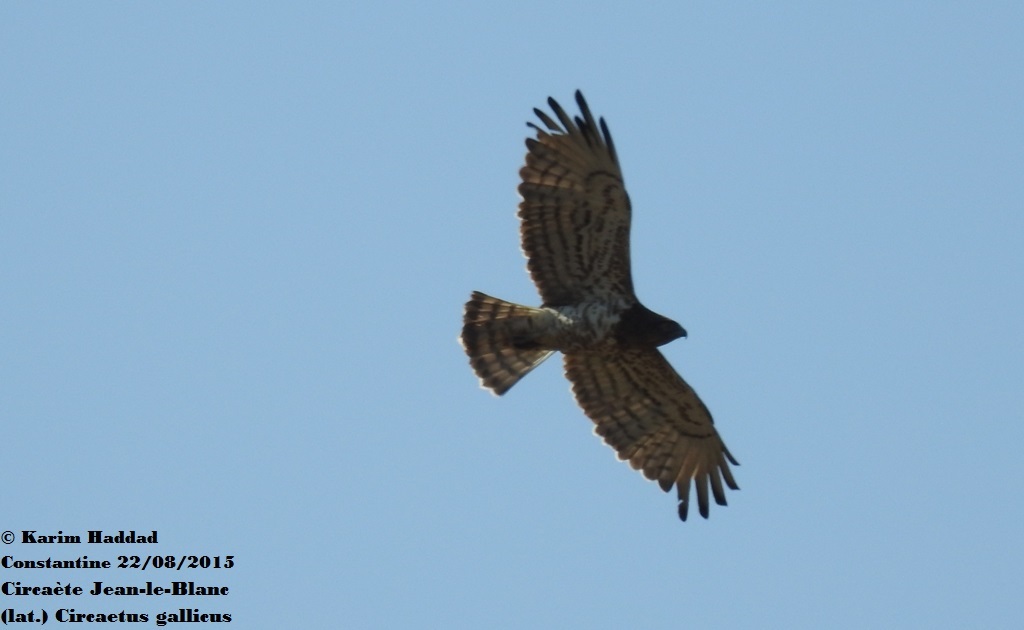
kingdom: Animalia
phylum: Chordata
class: Aves
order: Accipitriformes
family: Accipitridae
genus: Circaetus
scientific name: Circaetus gallicus
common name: Short-toed snake eagle
